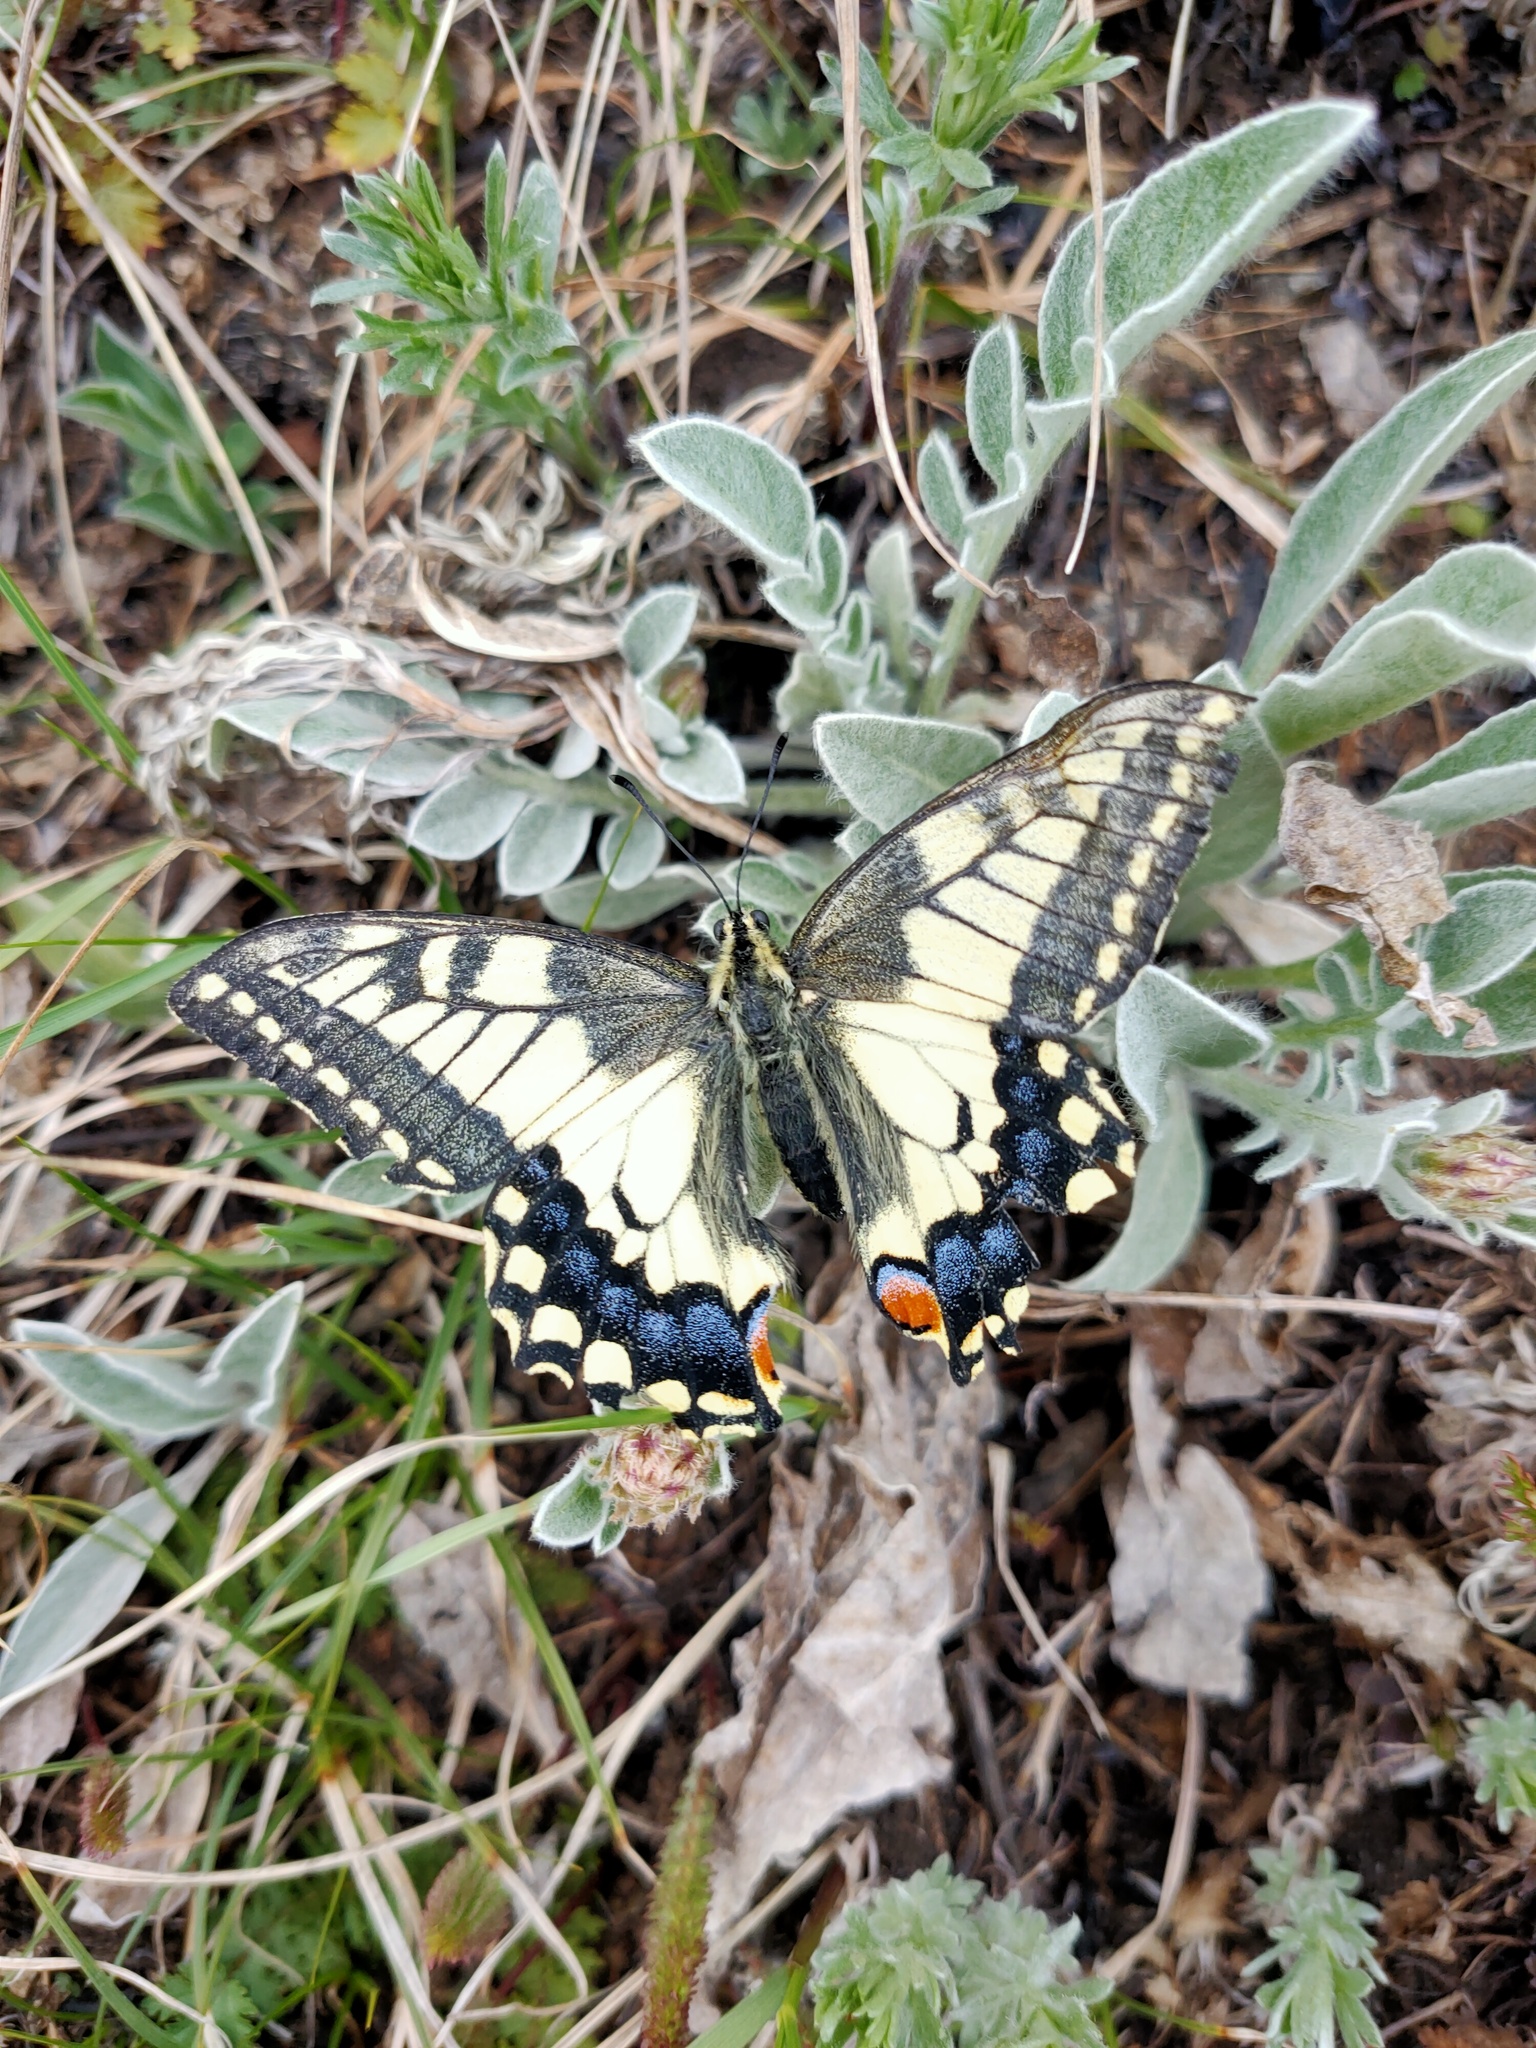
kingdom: Animalia
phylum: Arthropoda
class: Insecta
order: Lepidoptera
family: Papilionidae
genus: Papilio
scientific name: Papilio machaon
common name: Swallowtail
